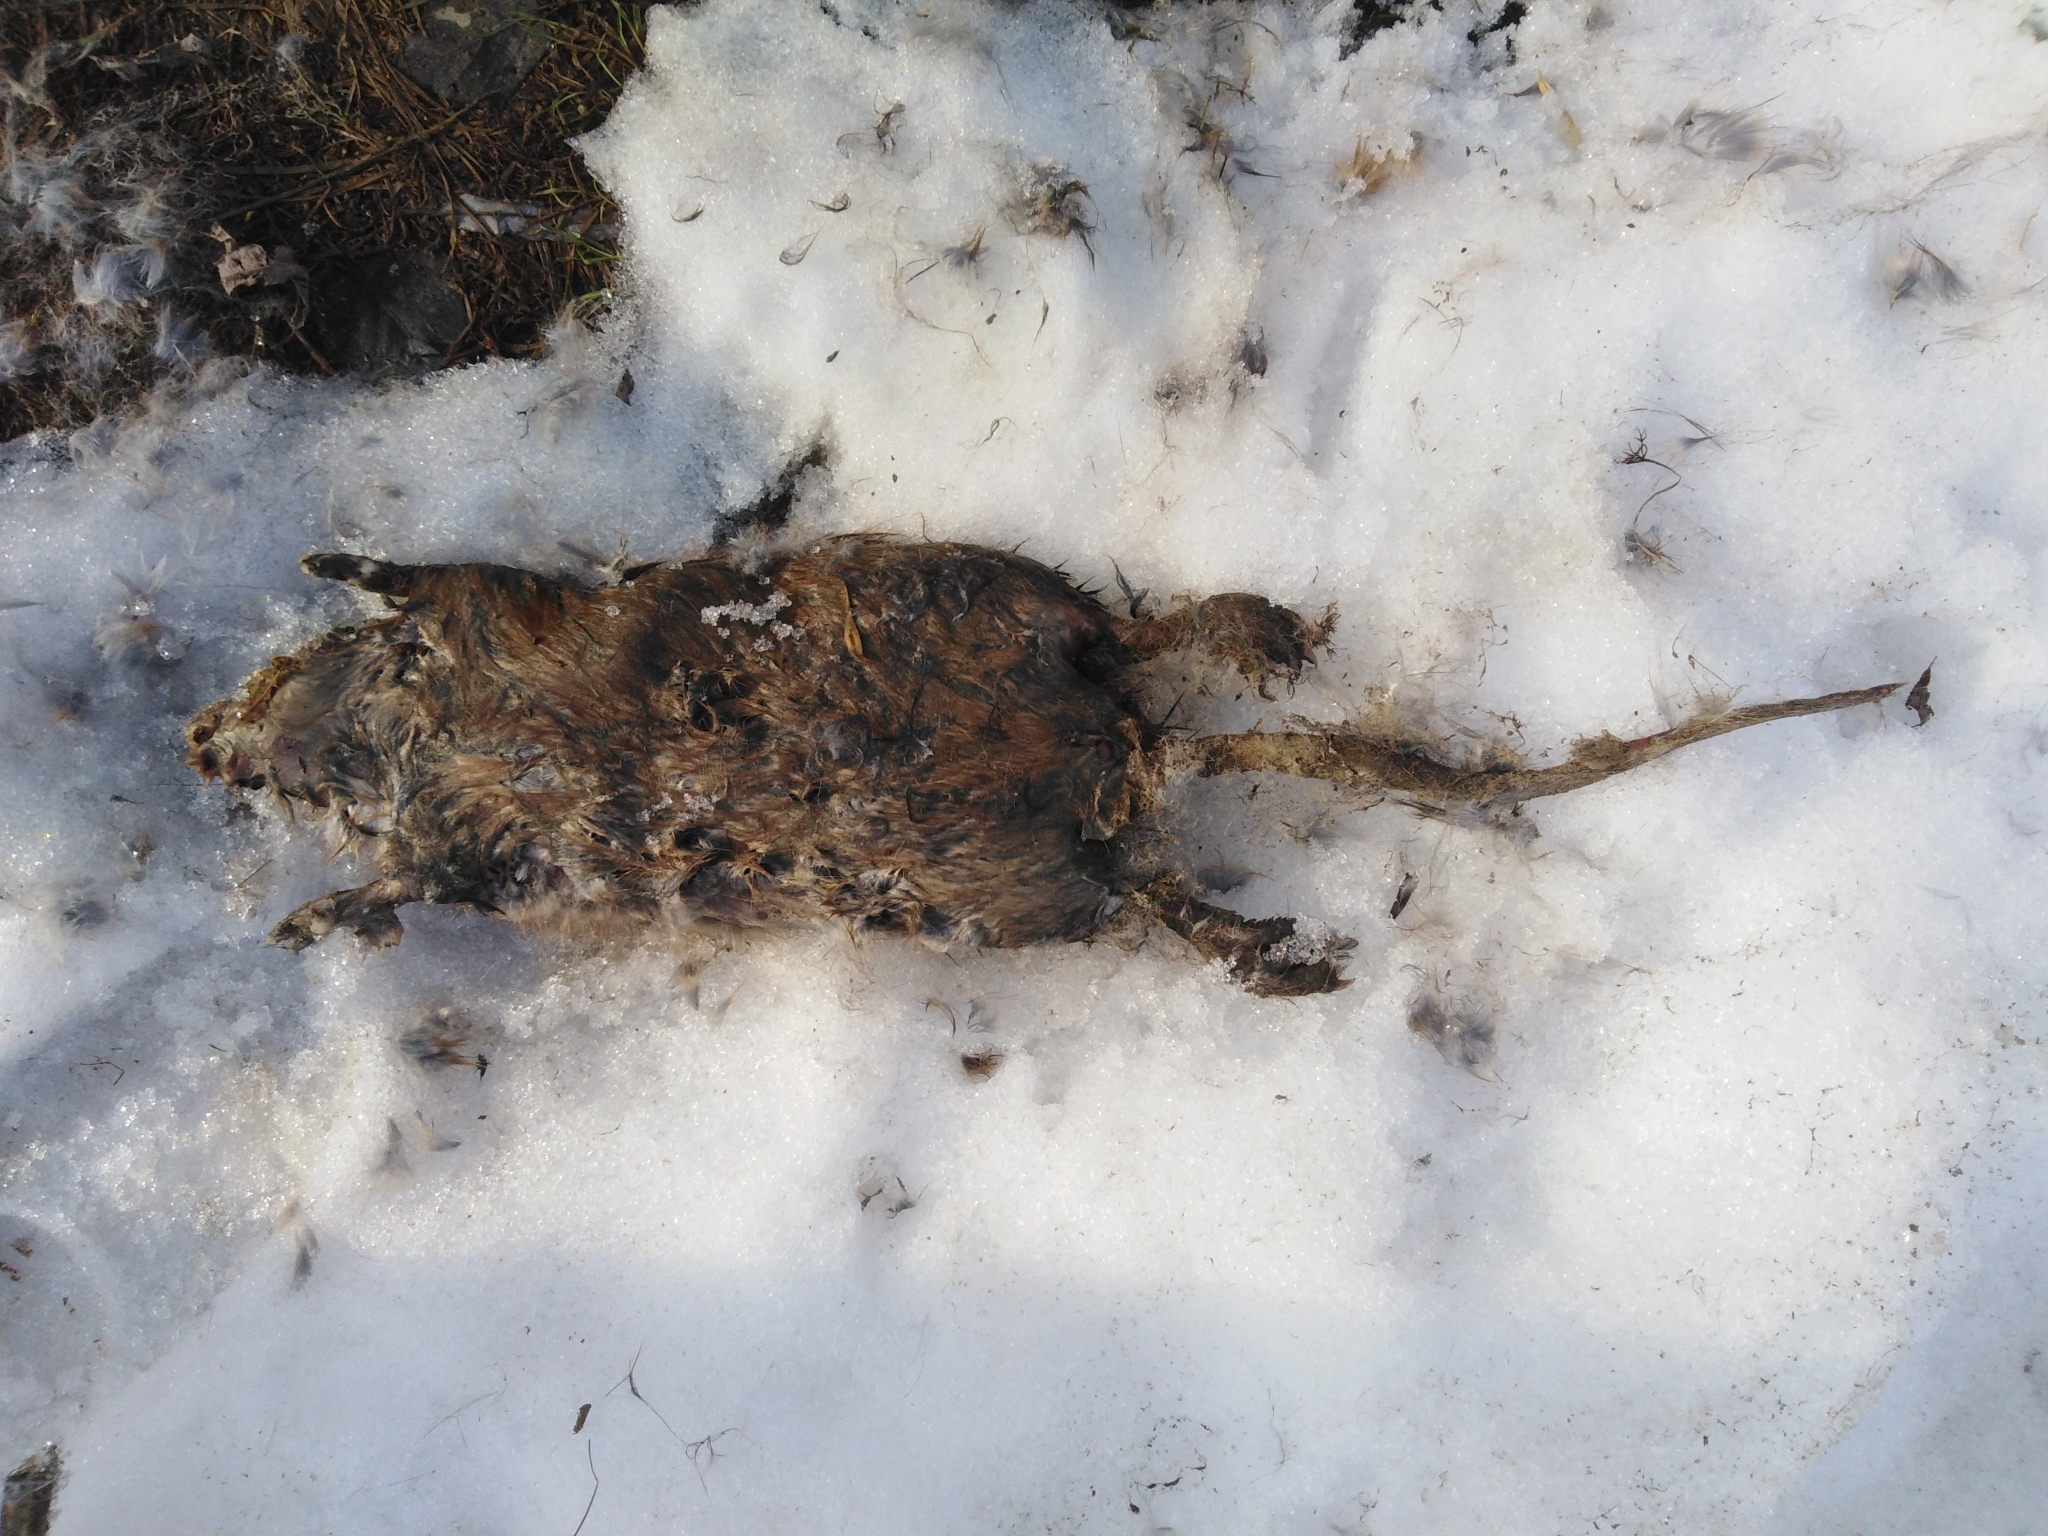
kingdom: Animalia
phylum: Chordata
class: Mammalia
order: Rodentia
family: Cricetidae
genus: Ondatra
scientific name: Ondatra zibethicus
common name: Muskrat
